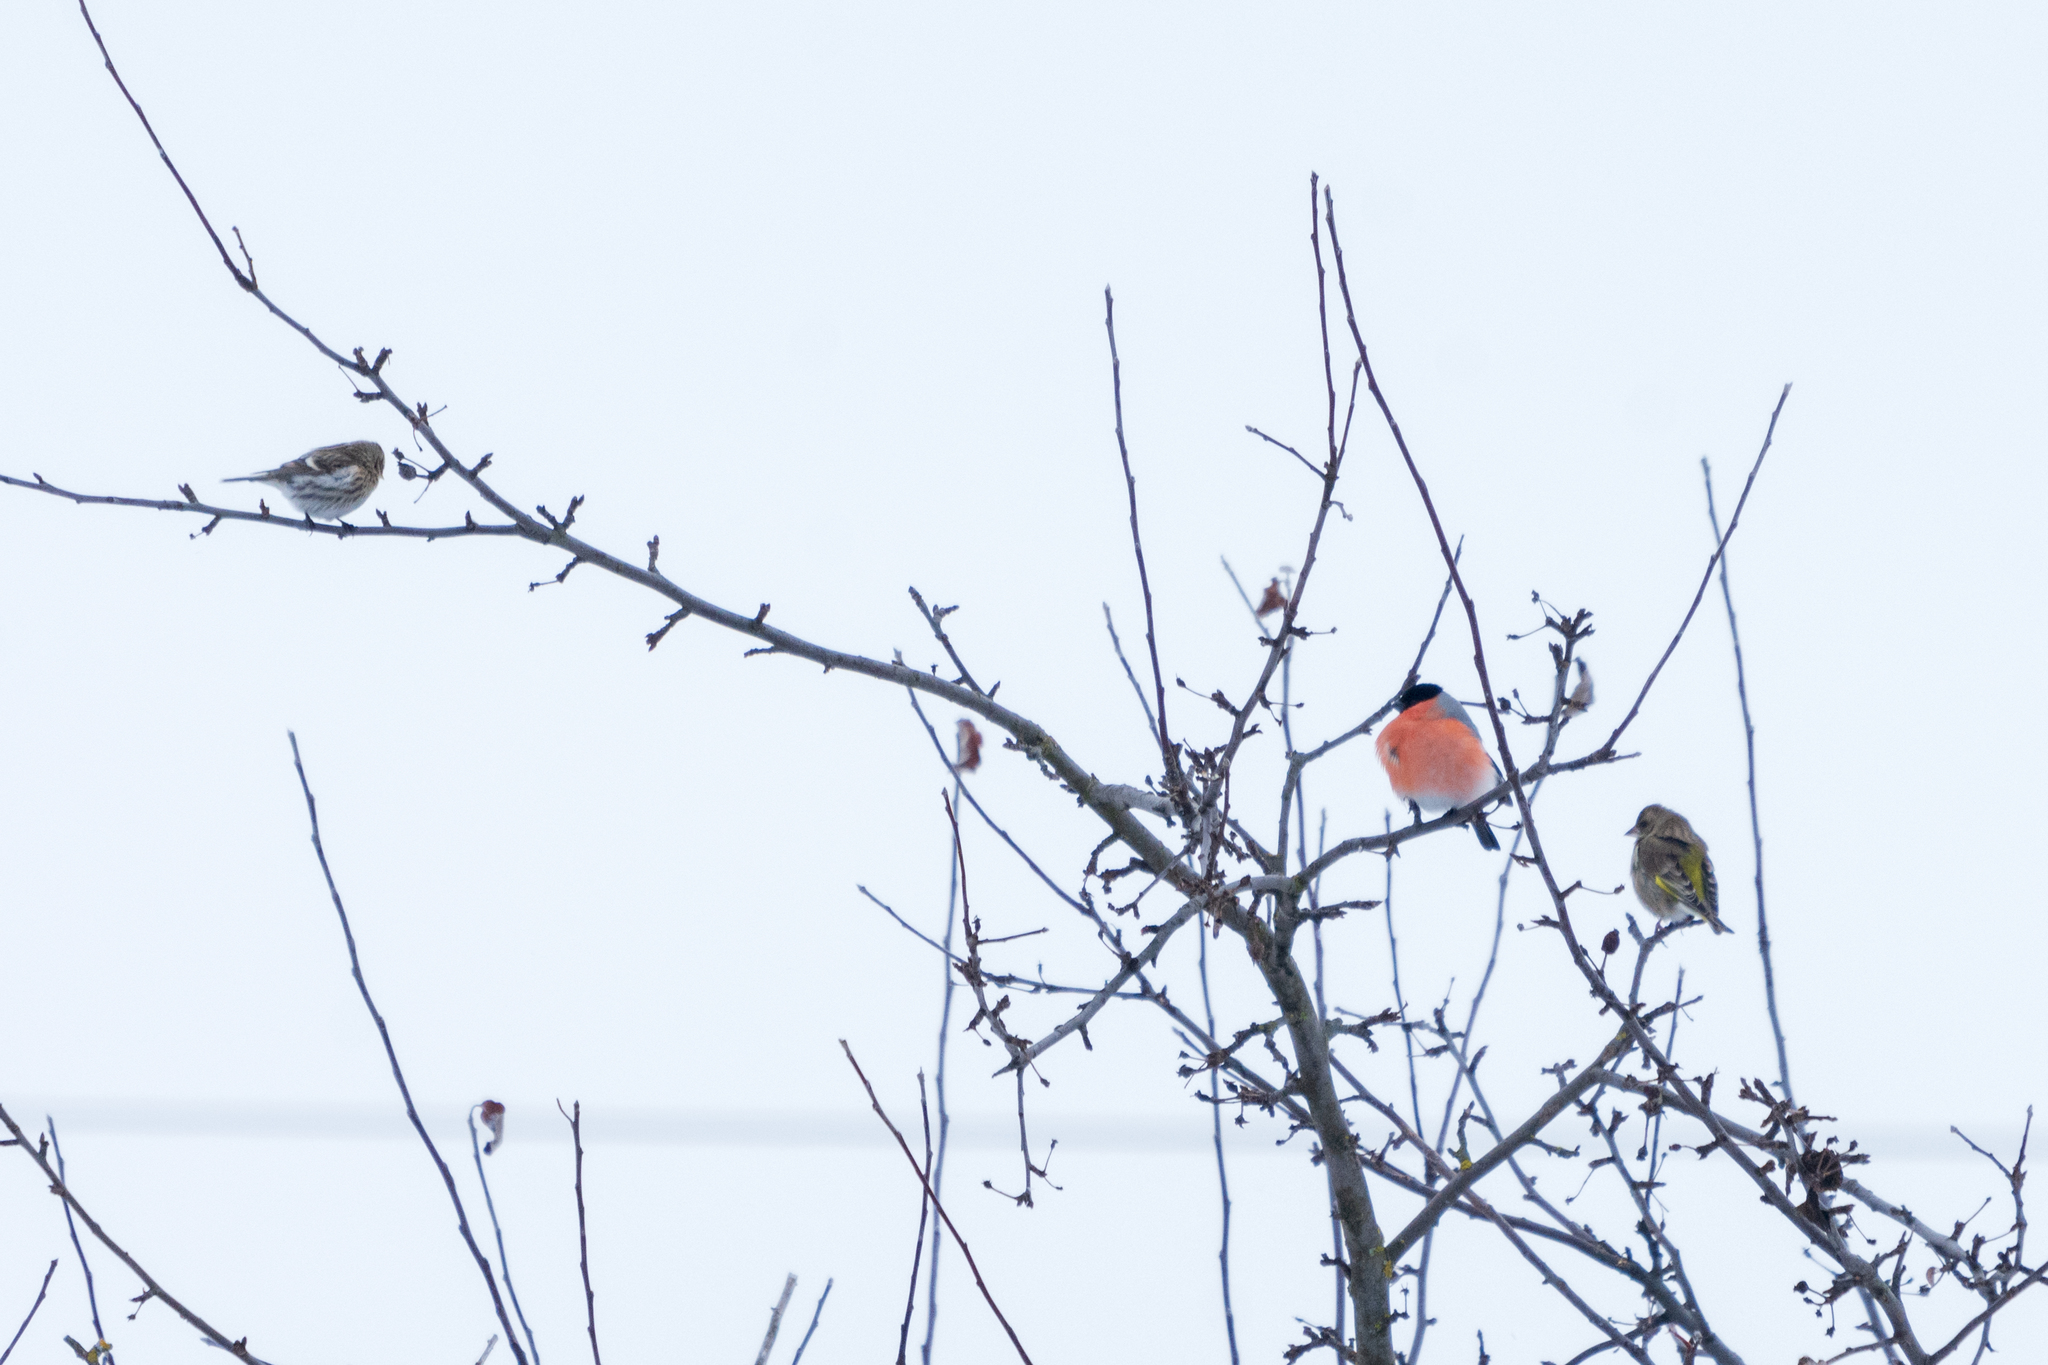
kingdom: Animalia
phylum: Chordata
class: Aves
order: Passeriformes
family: Fringillidae
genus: Spinus
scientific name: Spinus spinus
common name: Eurasian siskin
